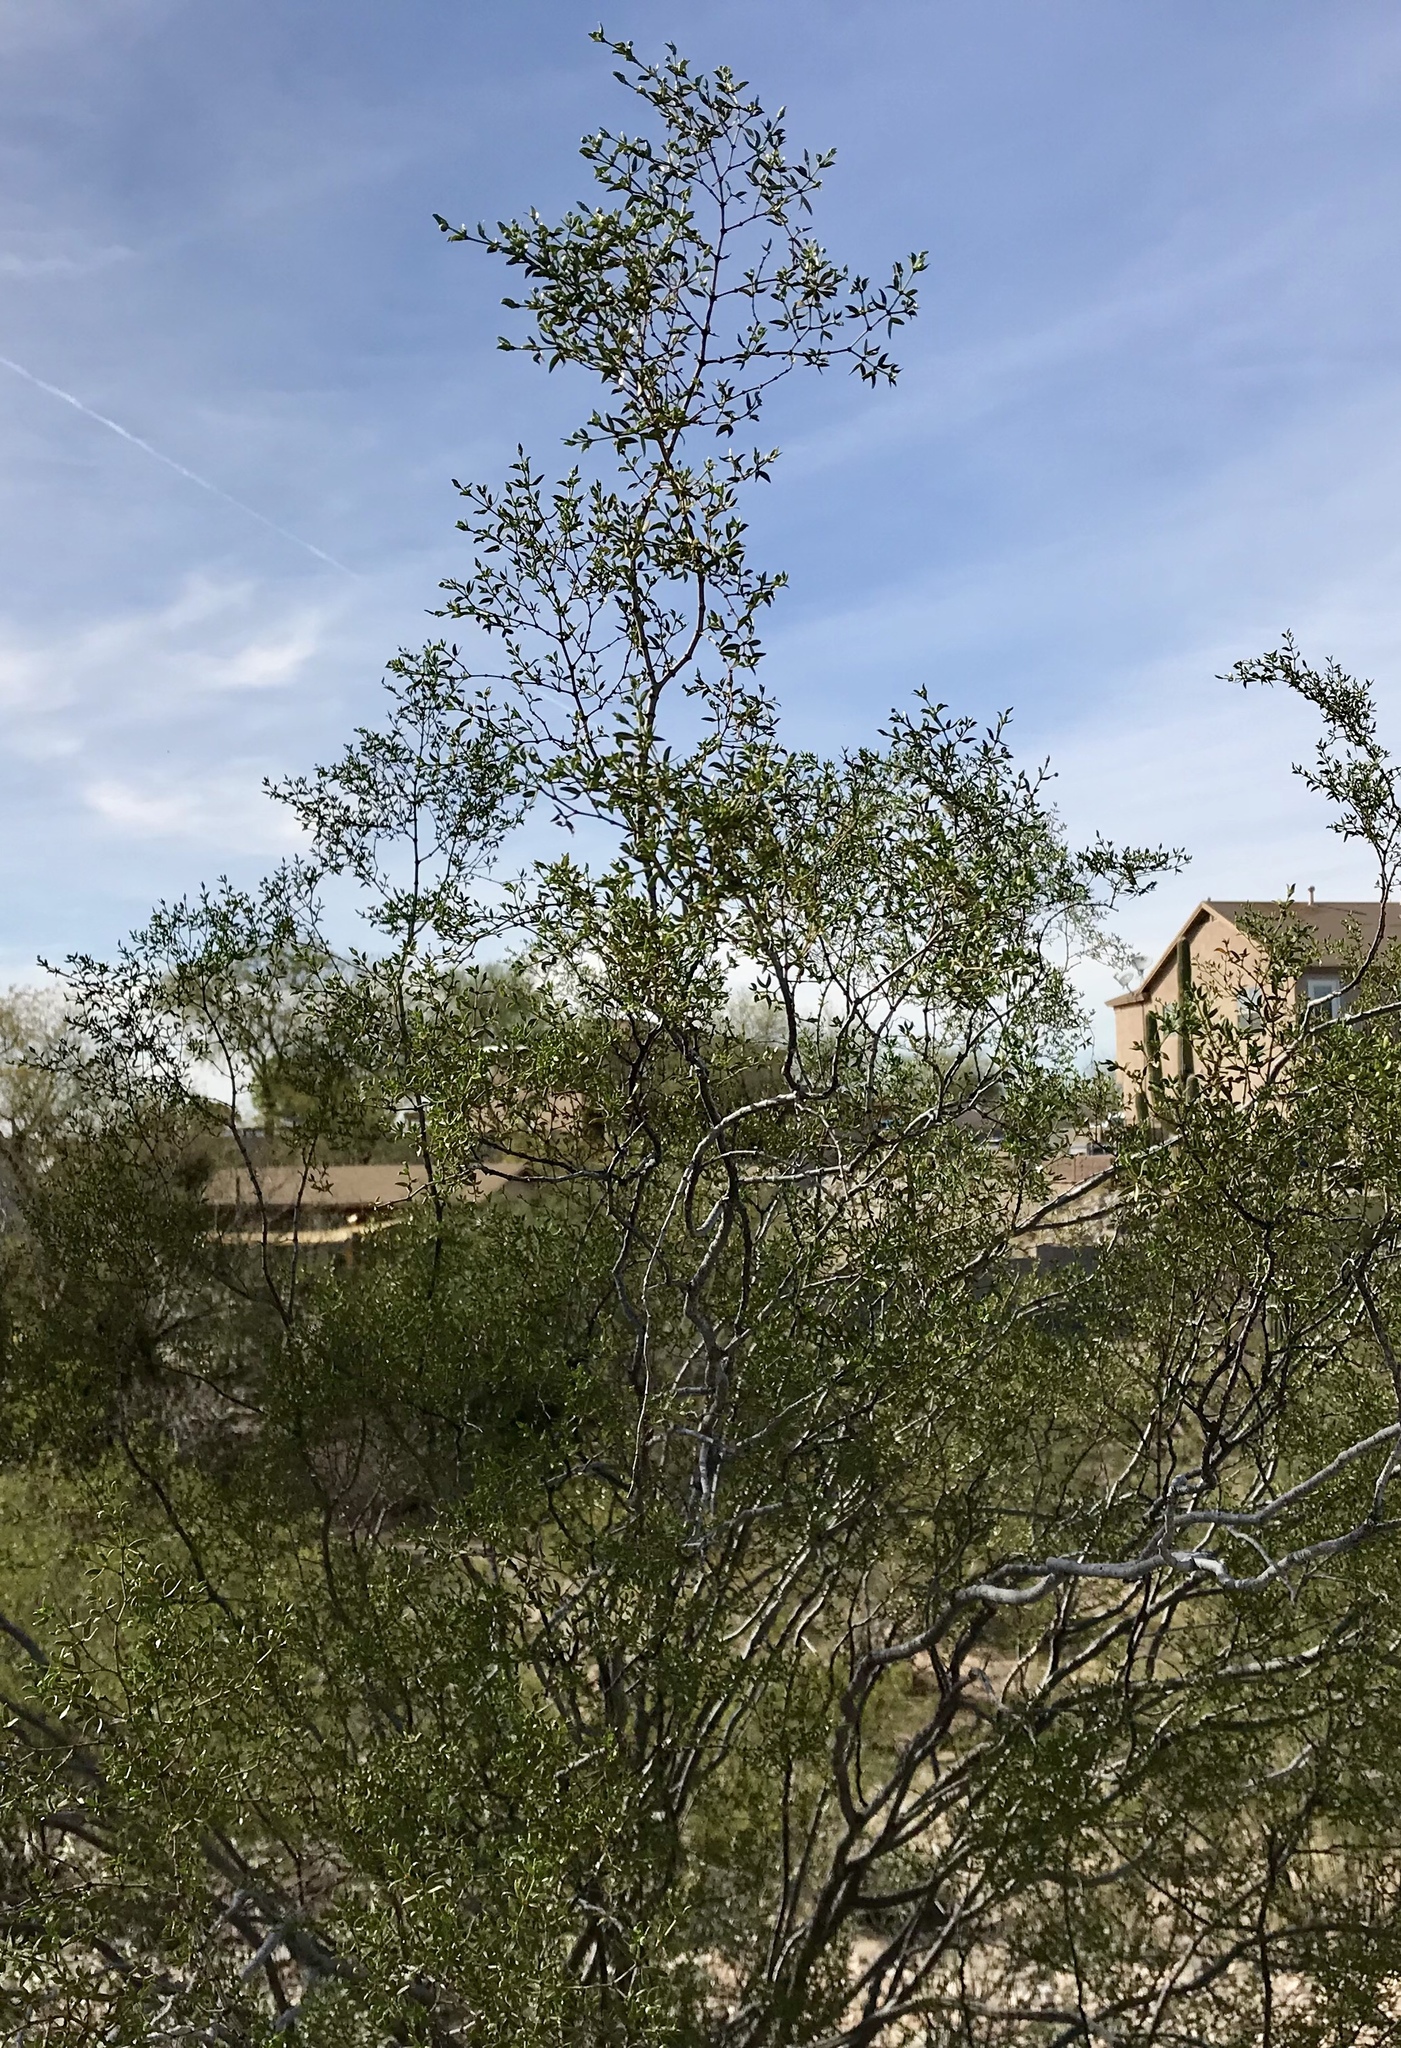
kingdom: Plantae
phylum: Tracheophyta
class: Magnoliopsida
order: Zygophyllales
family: Zygophyllaceae
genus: Larrea
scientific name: Larrea tridentata
